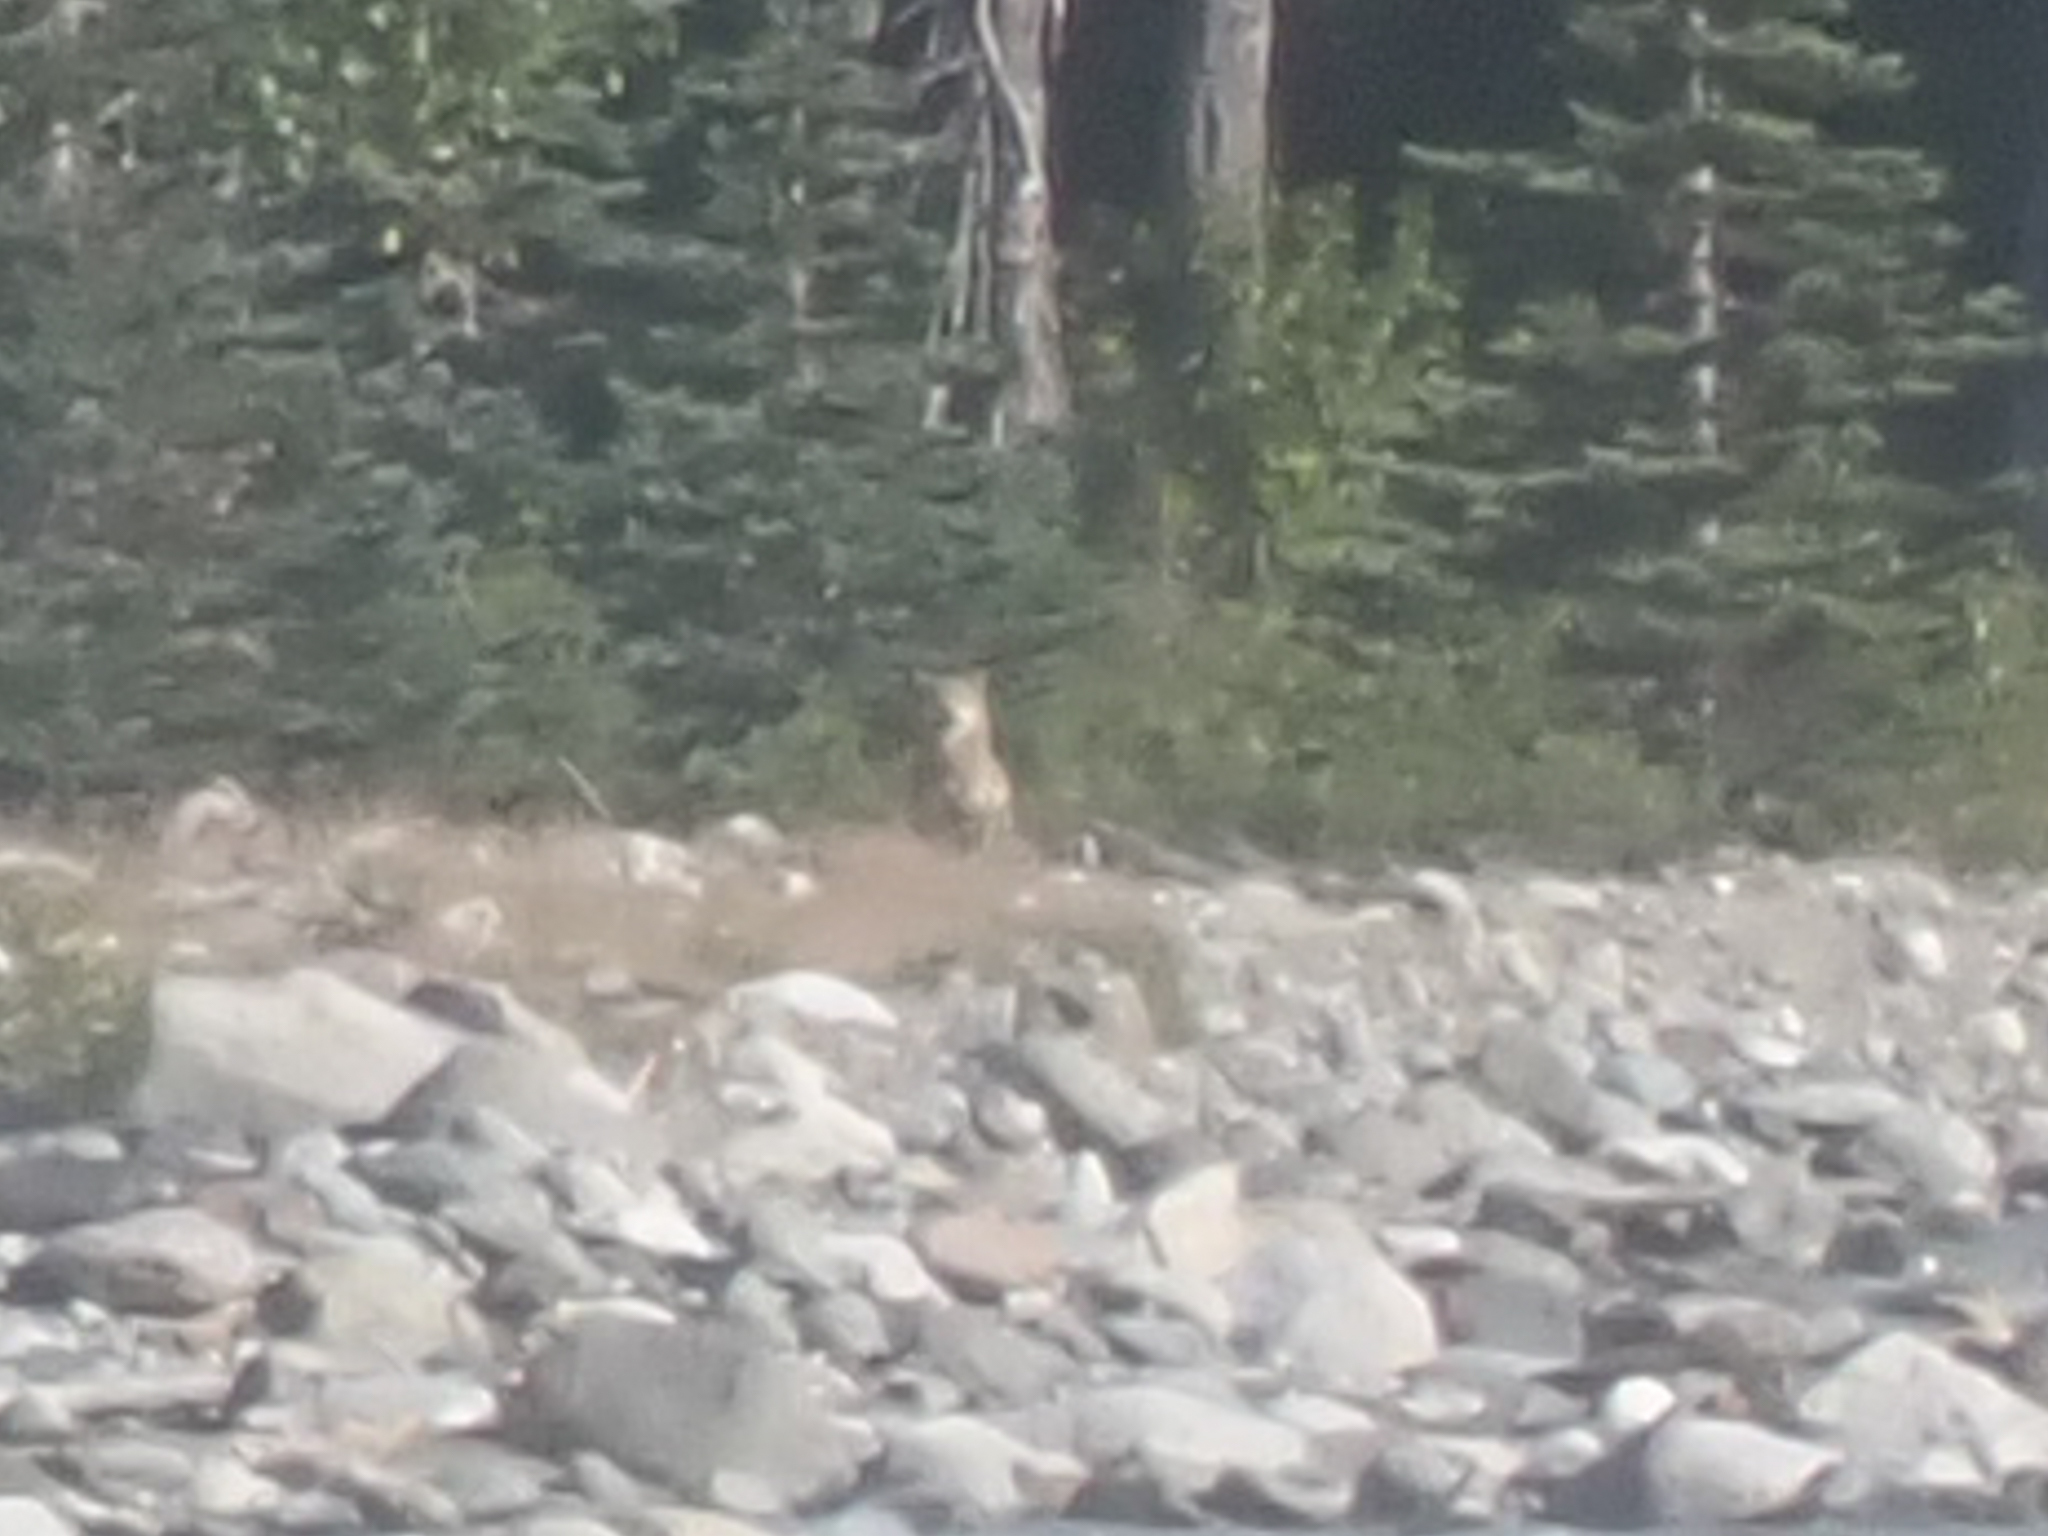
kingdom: Animalia
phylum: Chordata
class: Mammalia
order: Carnivora
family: Canidae
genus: Canis
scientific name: Canis lupus
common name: Gray wolf
